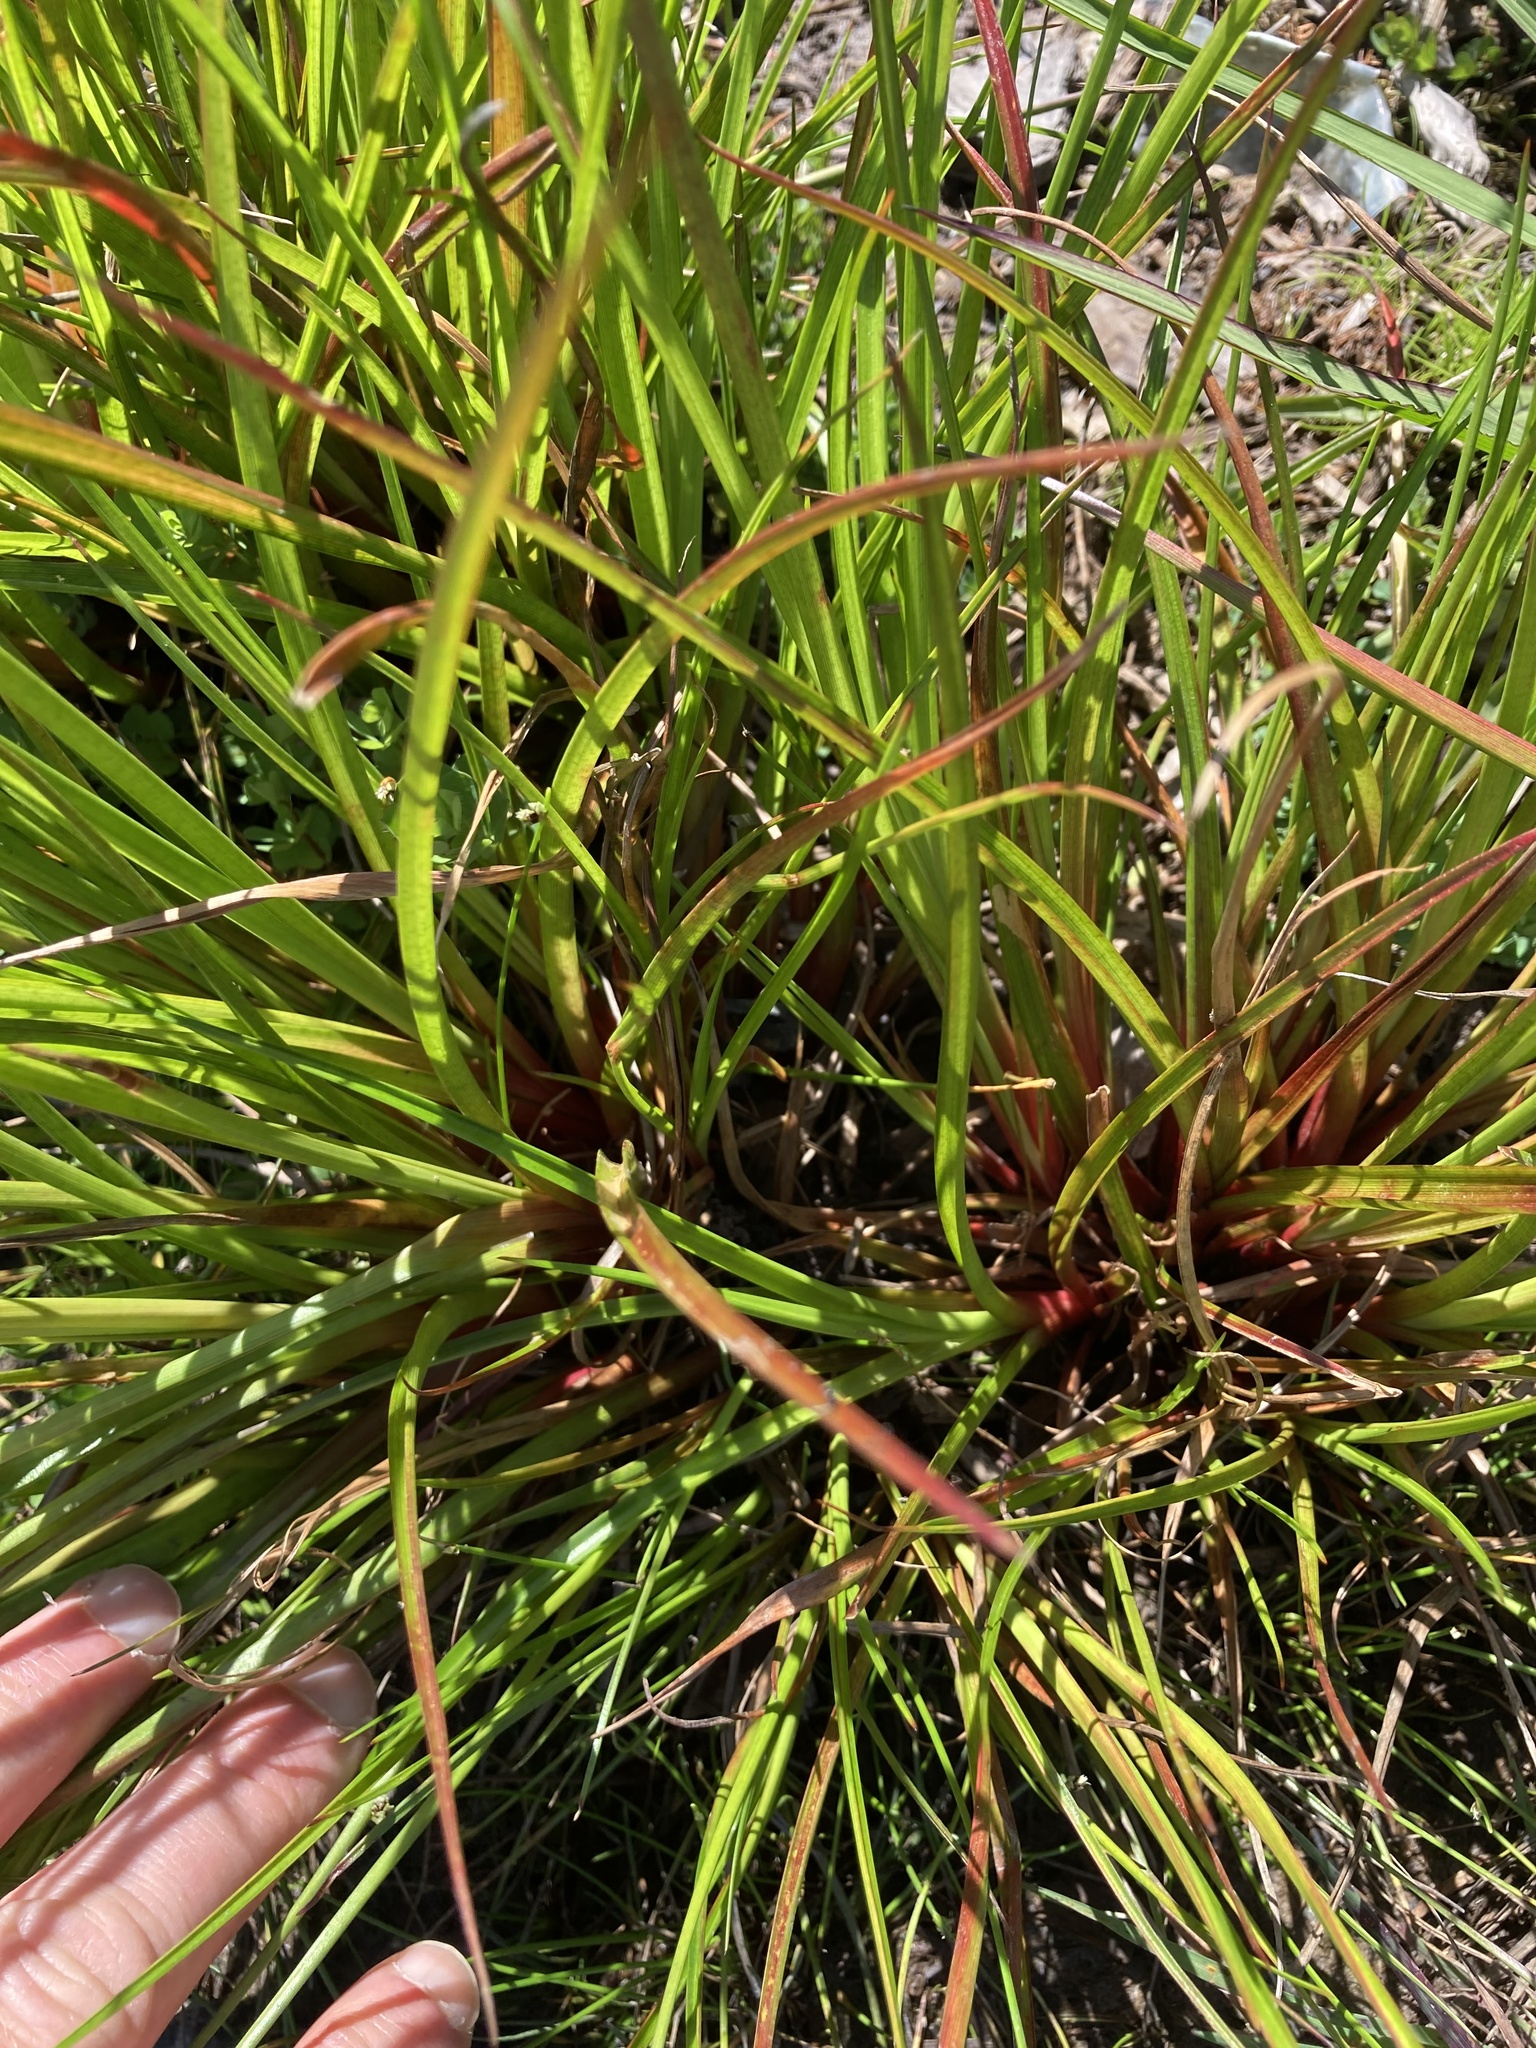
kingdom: Plantae
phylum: Tracheophyta
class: Liliopsida
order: Poales
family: Juncaceae
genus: Juncus
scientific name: Juncus planifolius
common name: Broadleaf rush
